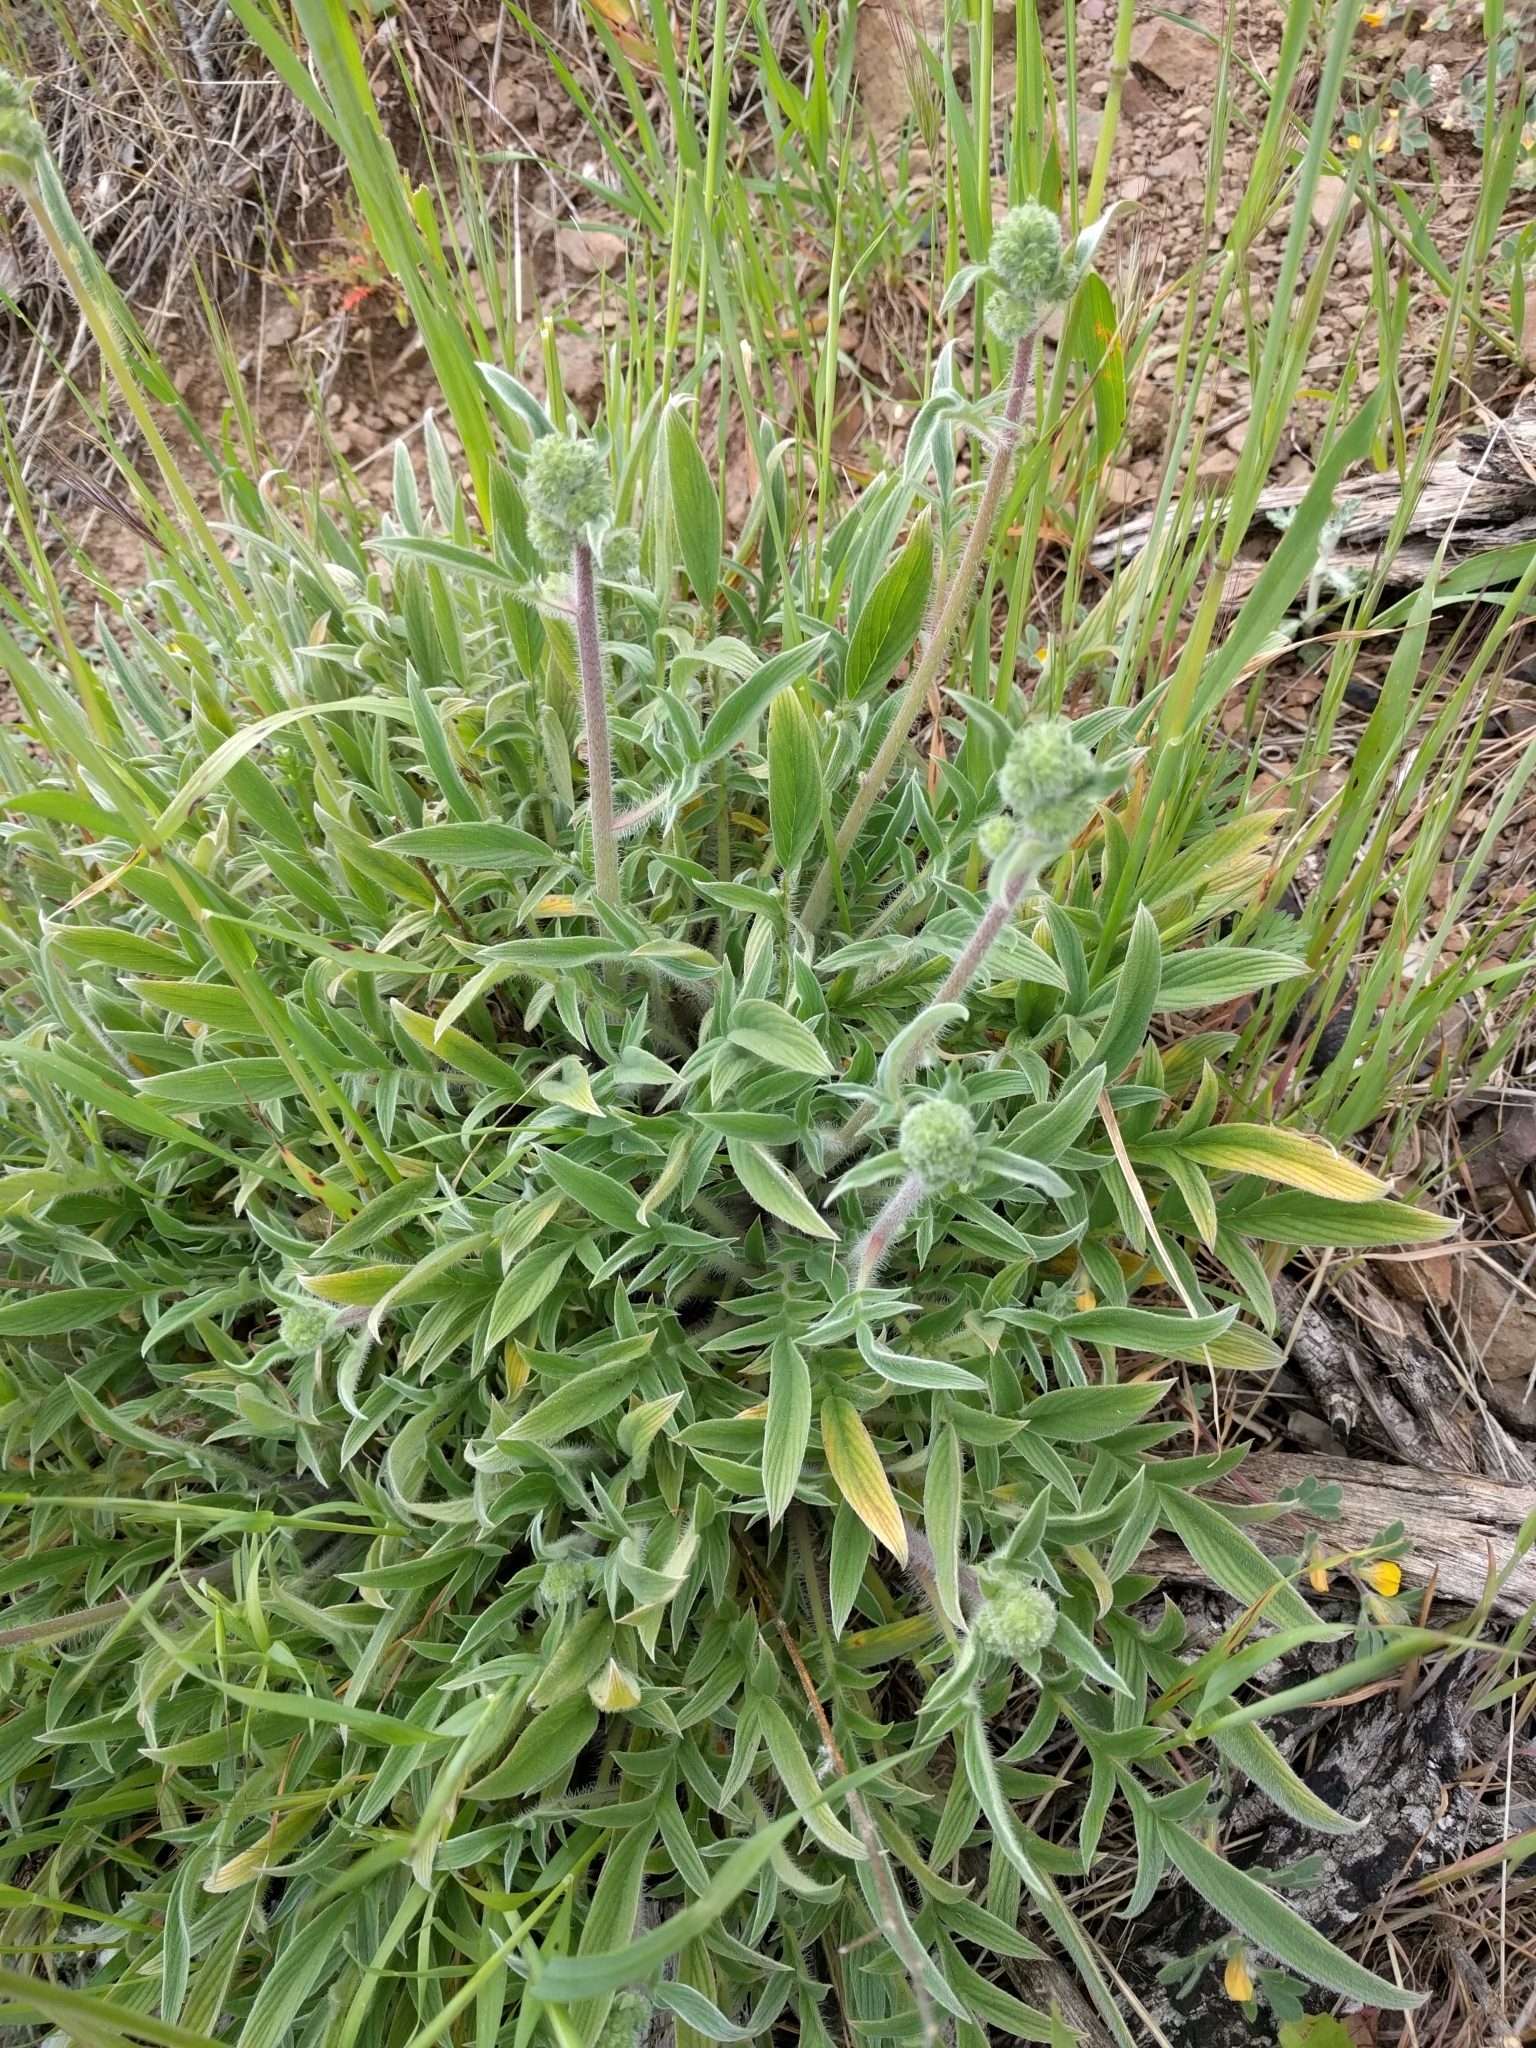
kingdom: Plantae
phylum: Tracheophyta
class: Magnoliopsida
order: Boraginales
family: Hydrophyllaceae
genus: Phacelia
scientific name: Phacelia imbricata
